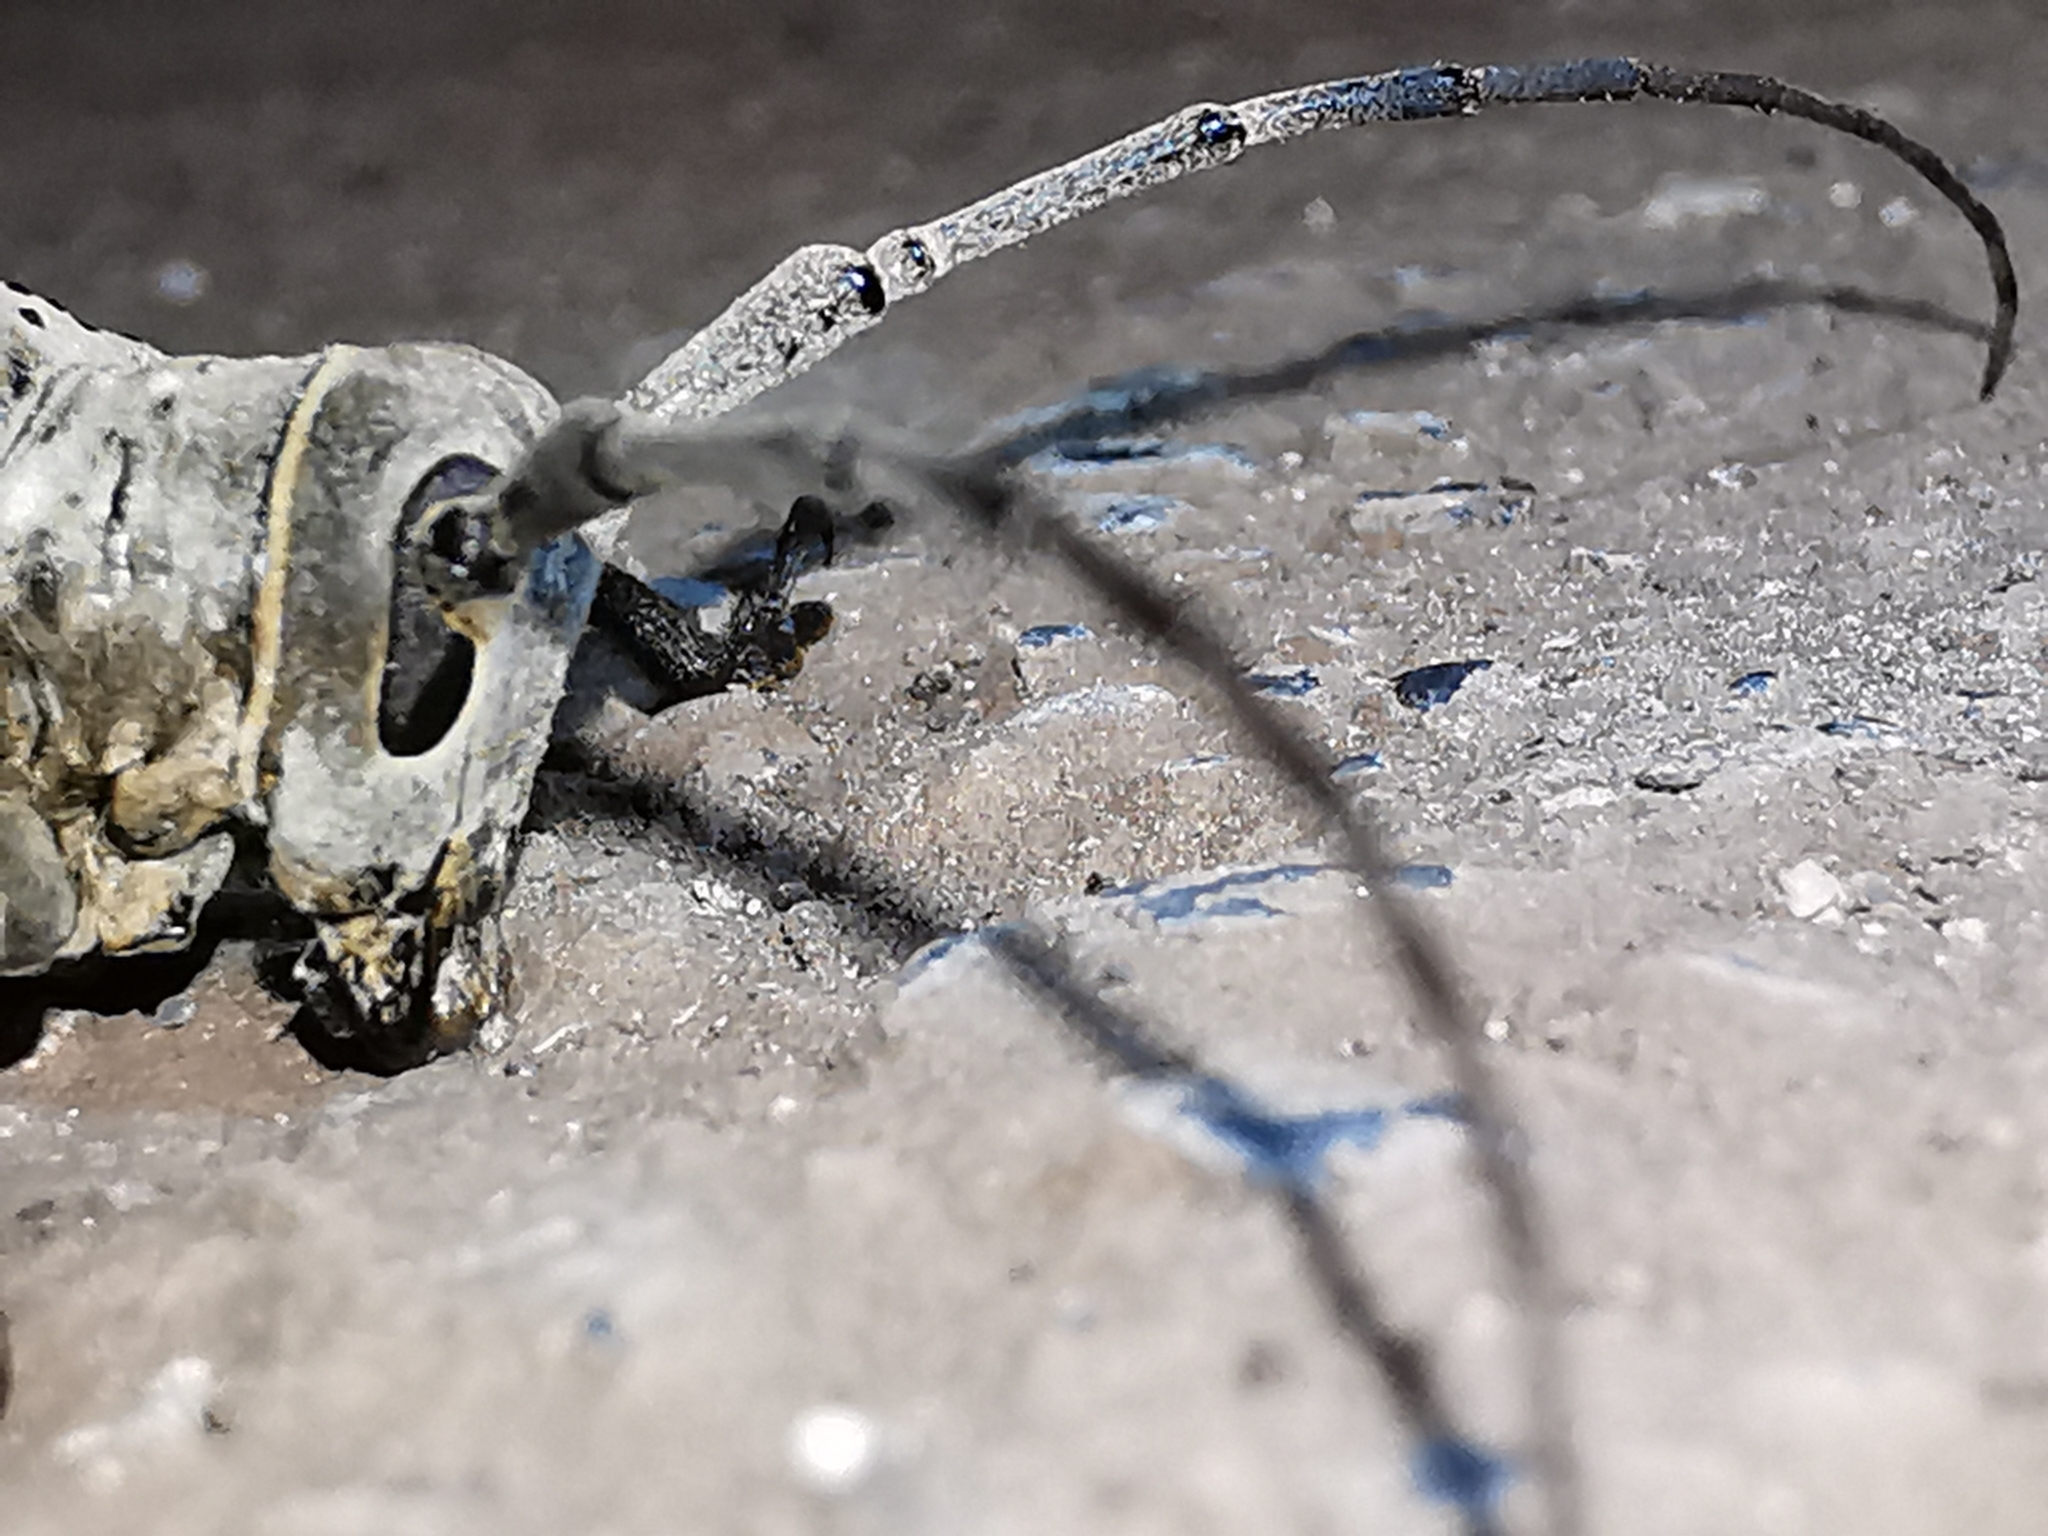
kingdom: Animalia
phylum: Arthropoda
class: Insecta
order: Coleoptera
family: Cerambycidae
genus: Oncideres
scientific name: Oncideres pustulata
